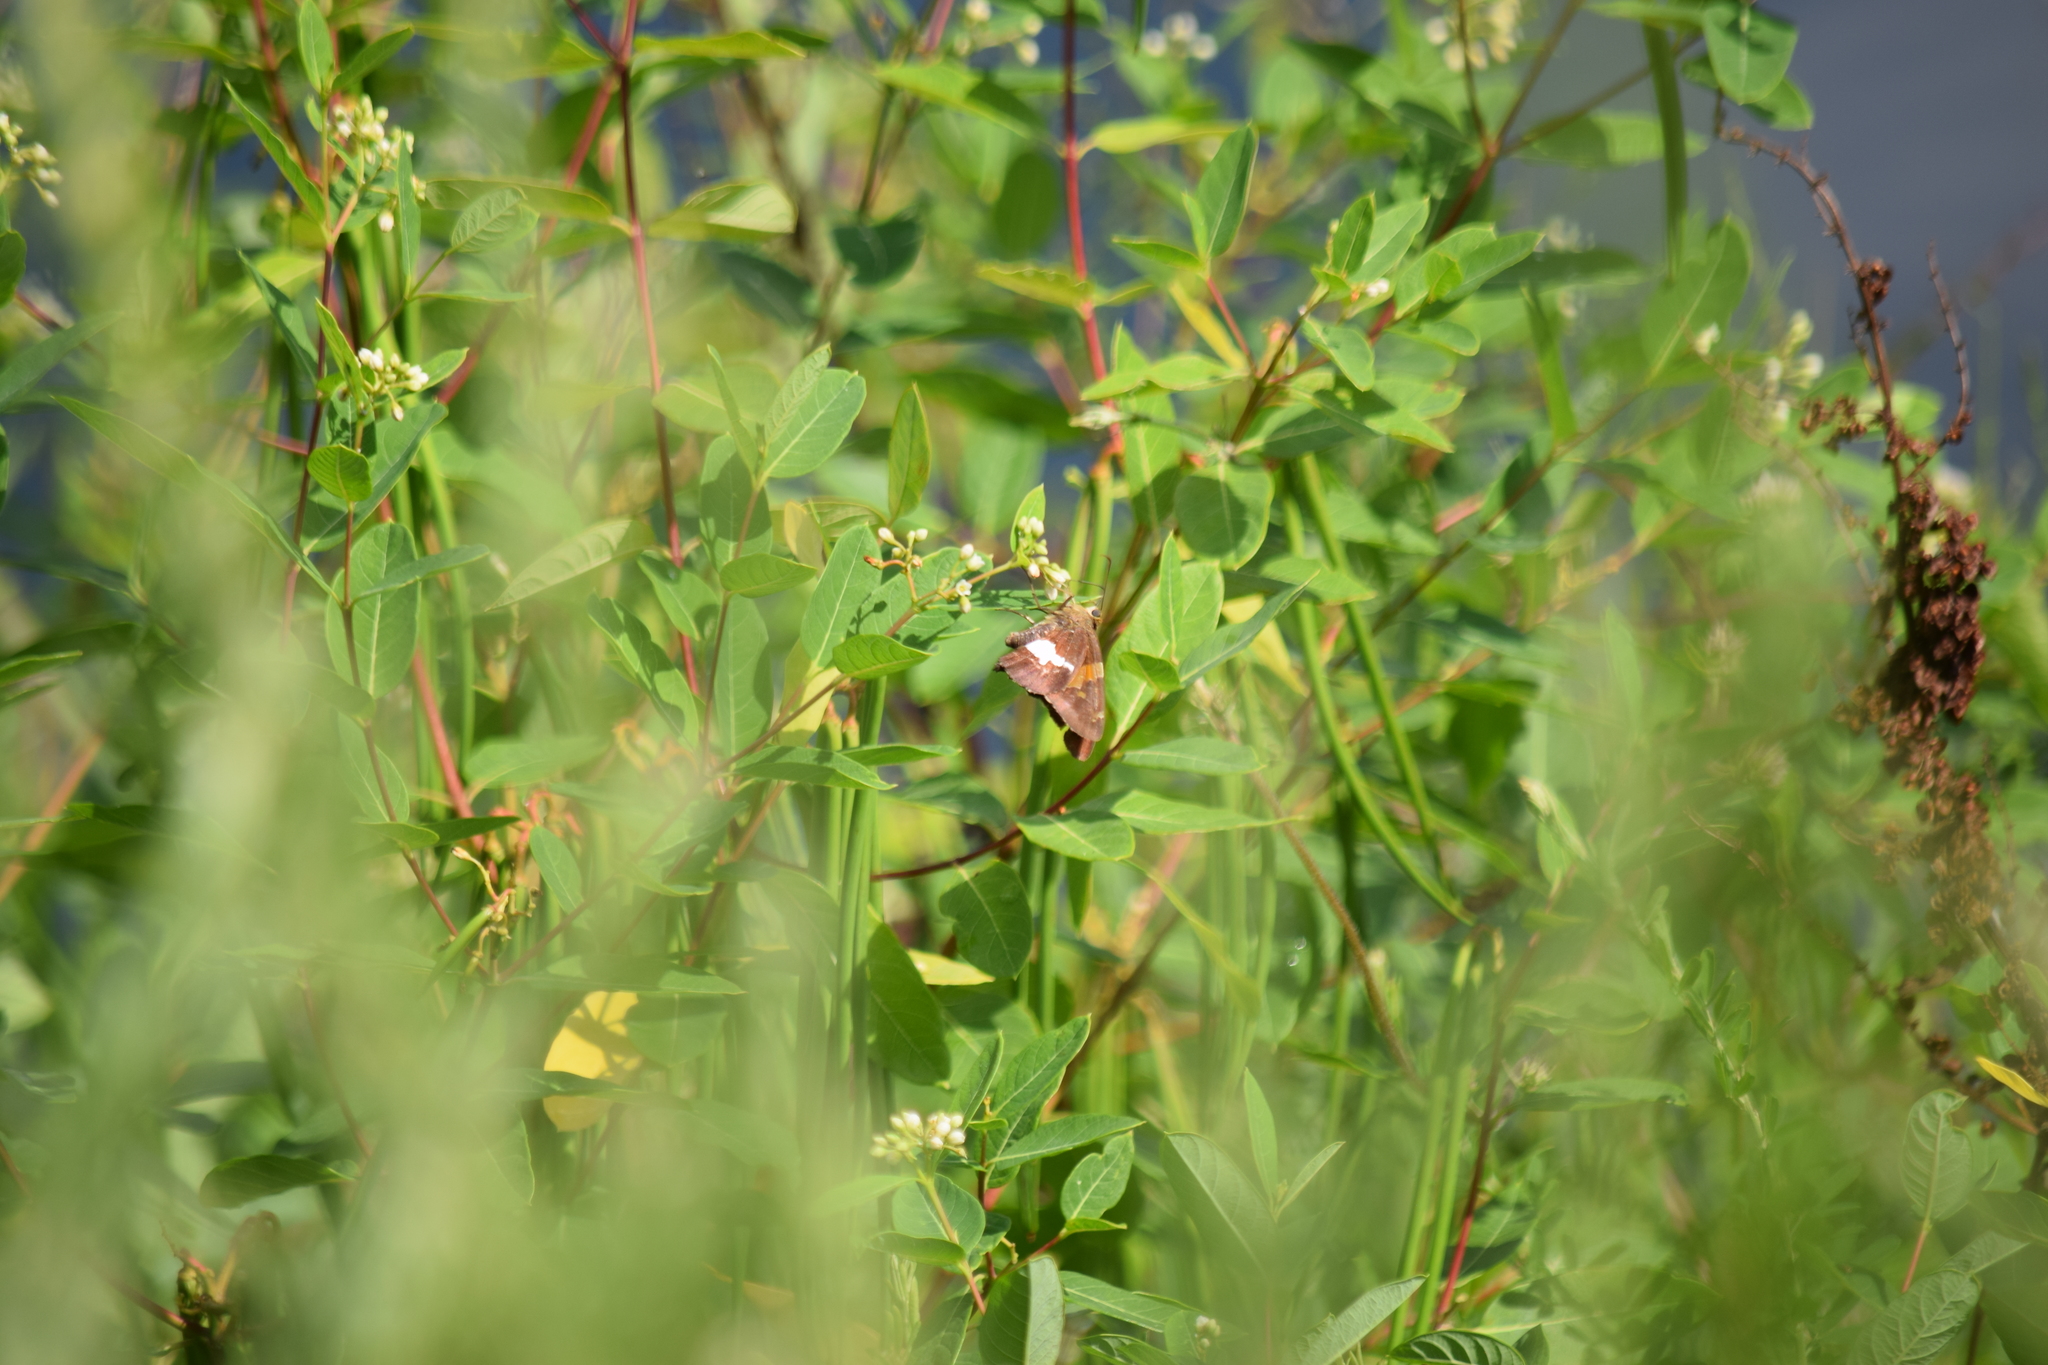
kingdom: Animalia
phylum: Arthropoda
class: Insecta
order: Lepidoptera
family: Hesperiidae
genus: Epargyreus
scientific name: Epargyreus clarus
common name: Silver-spotted skipper
